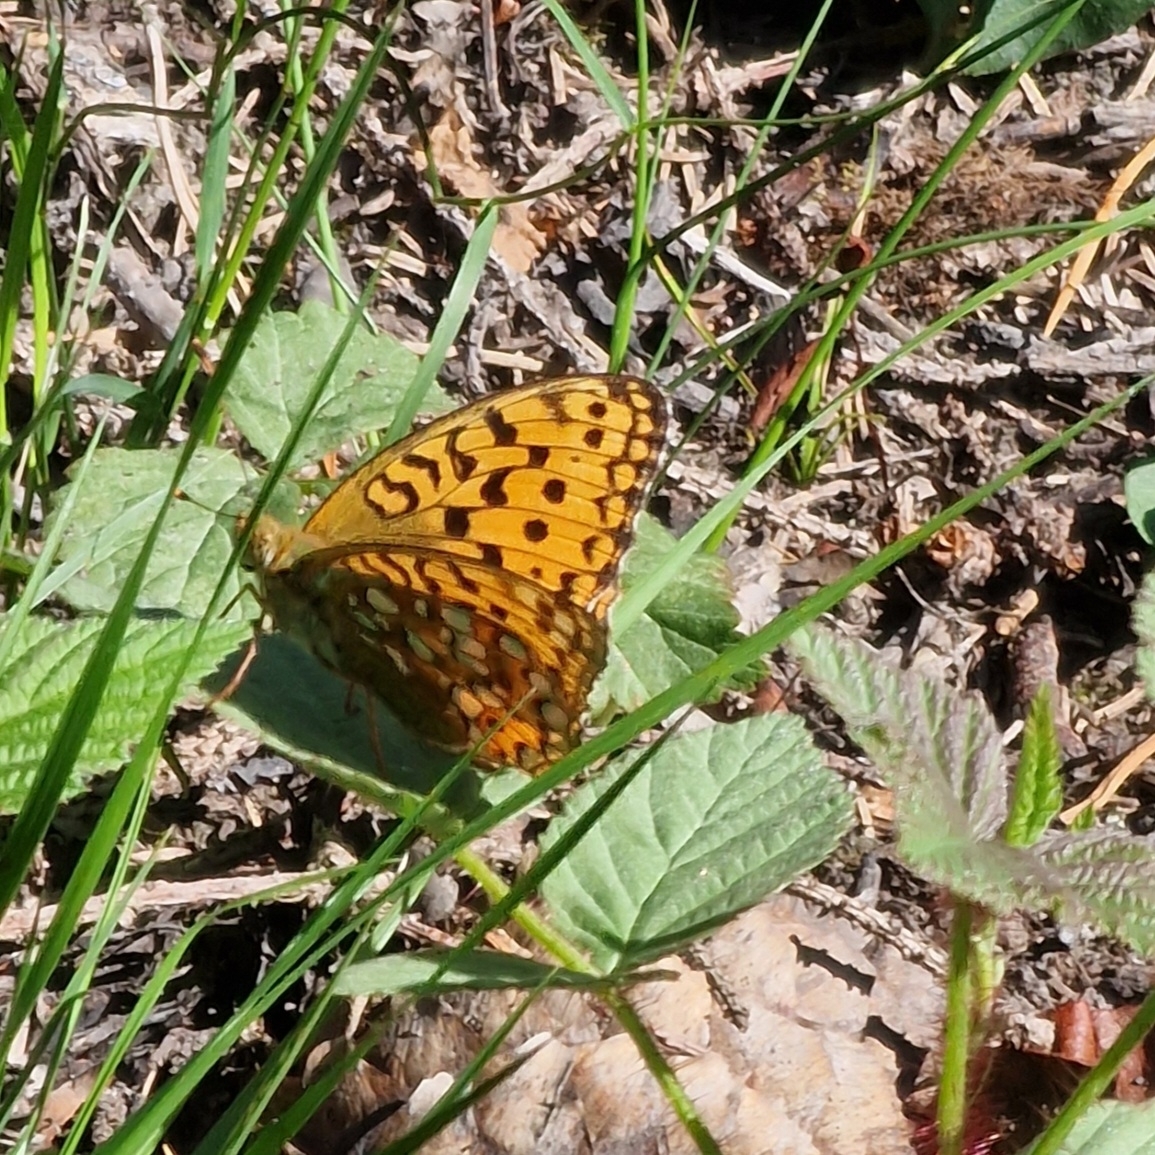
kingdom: Animalia
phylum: Arthropoda
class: Insecta
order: Lepidoptera
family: Nymphalidae
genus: Fabriciana
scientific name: Fabriciana adippe
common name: High brown fritillary
